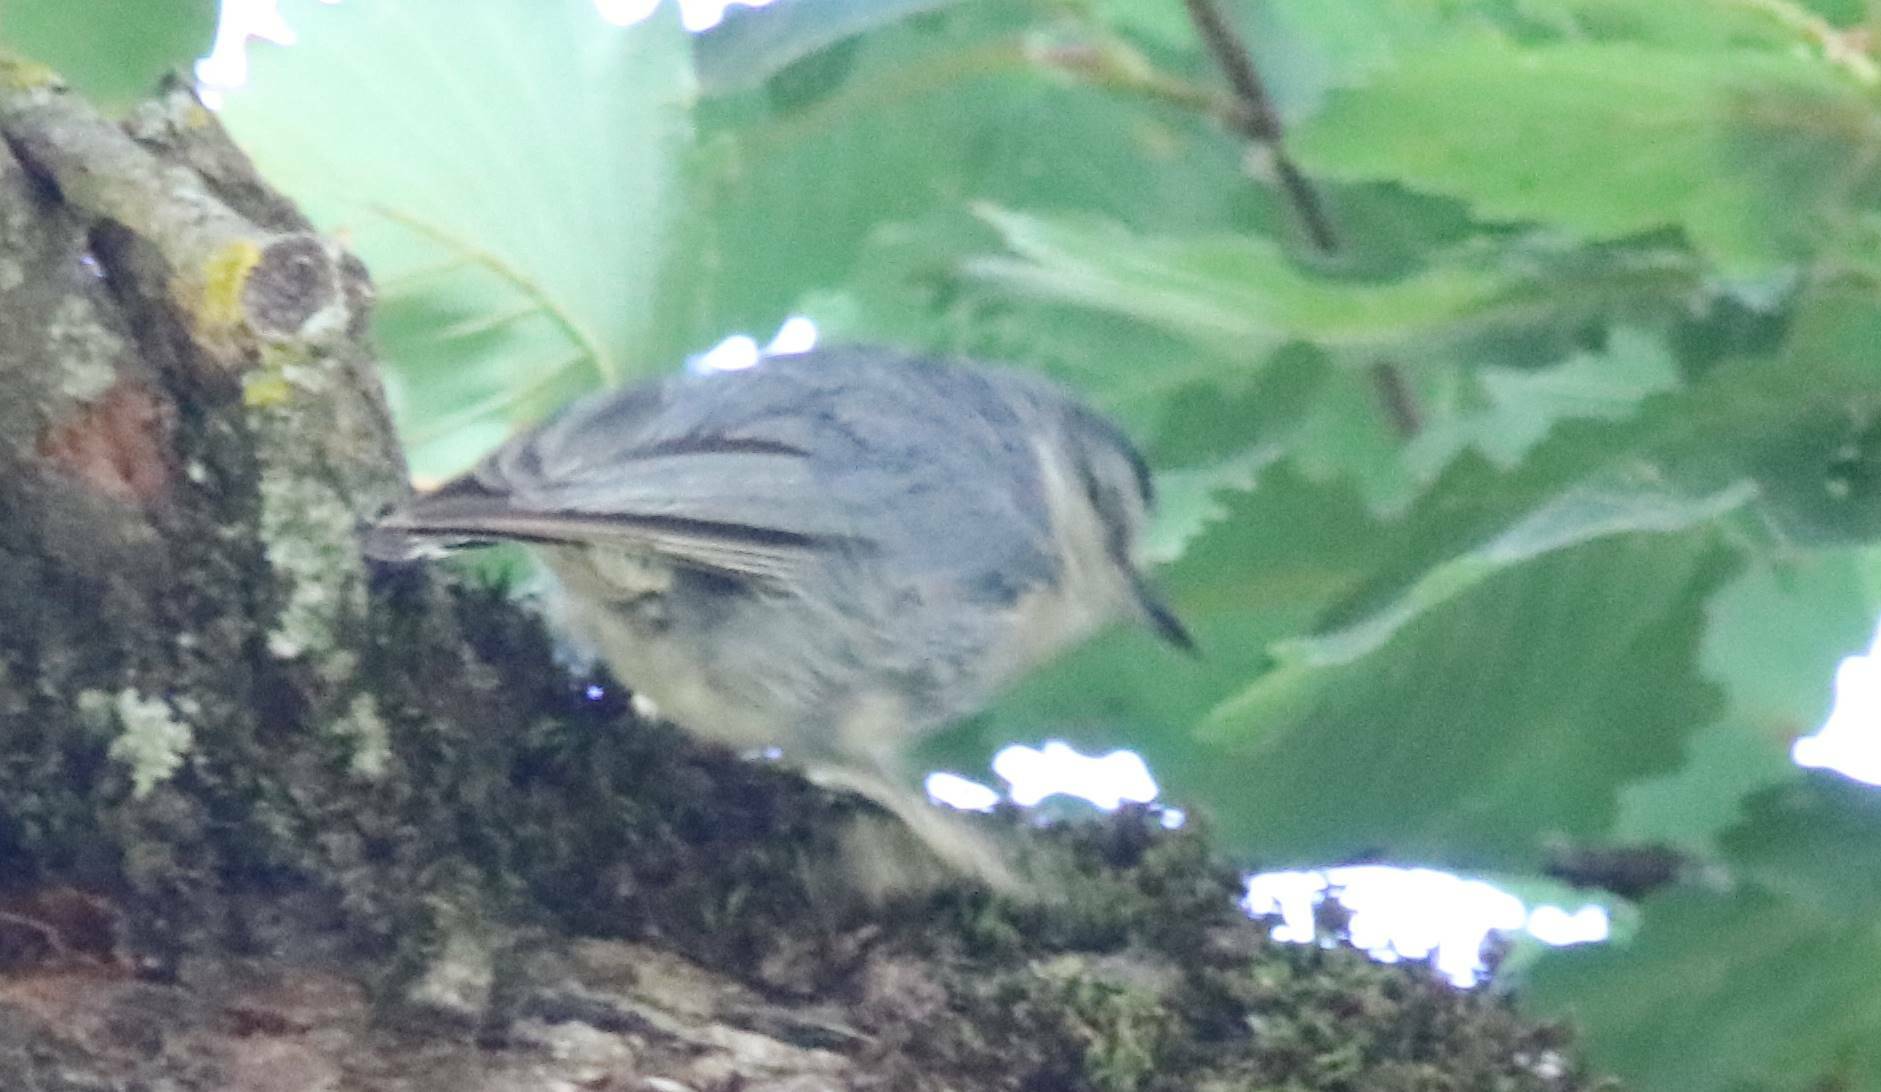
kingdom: Animalia
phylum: Chordata
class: Aves
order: Passeriformes
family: Sittidae
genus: Sitta
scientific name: Sitta ledanti
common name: Algerian nuthatch
